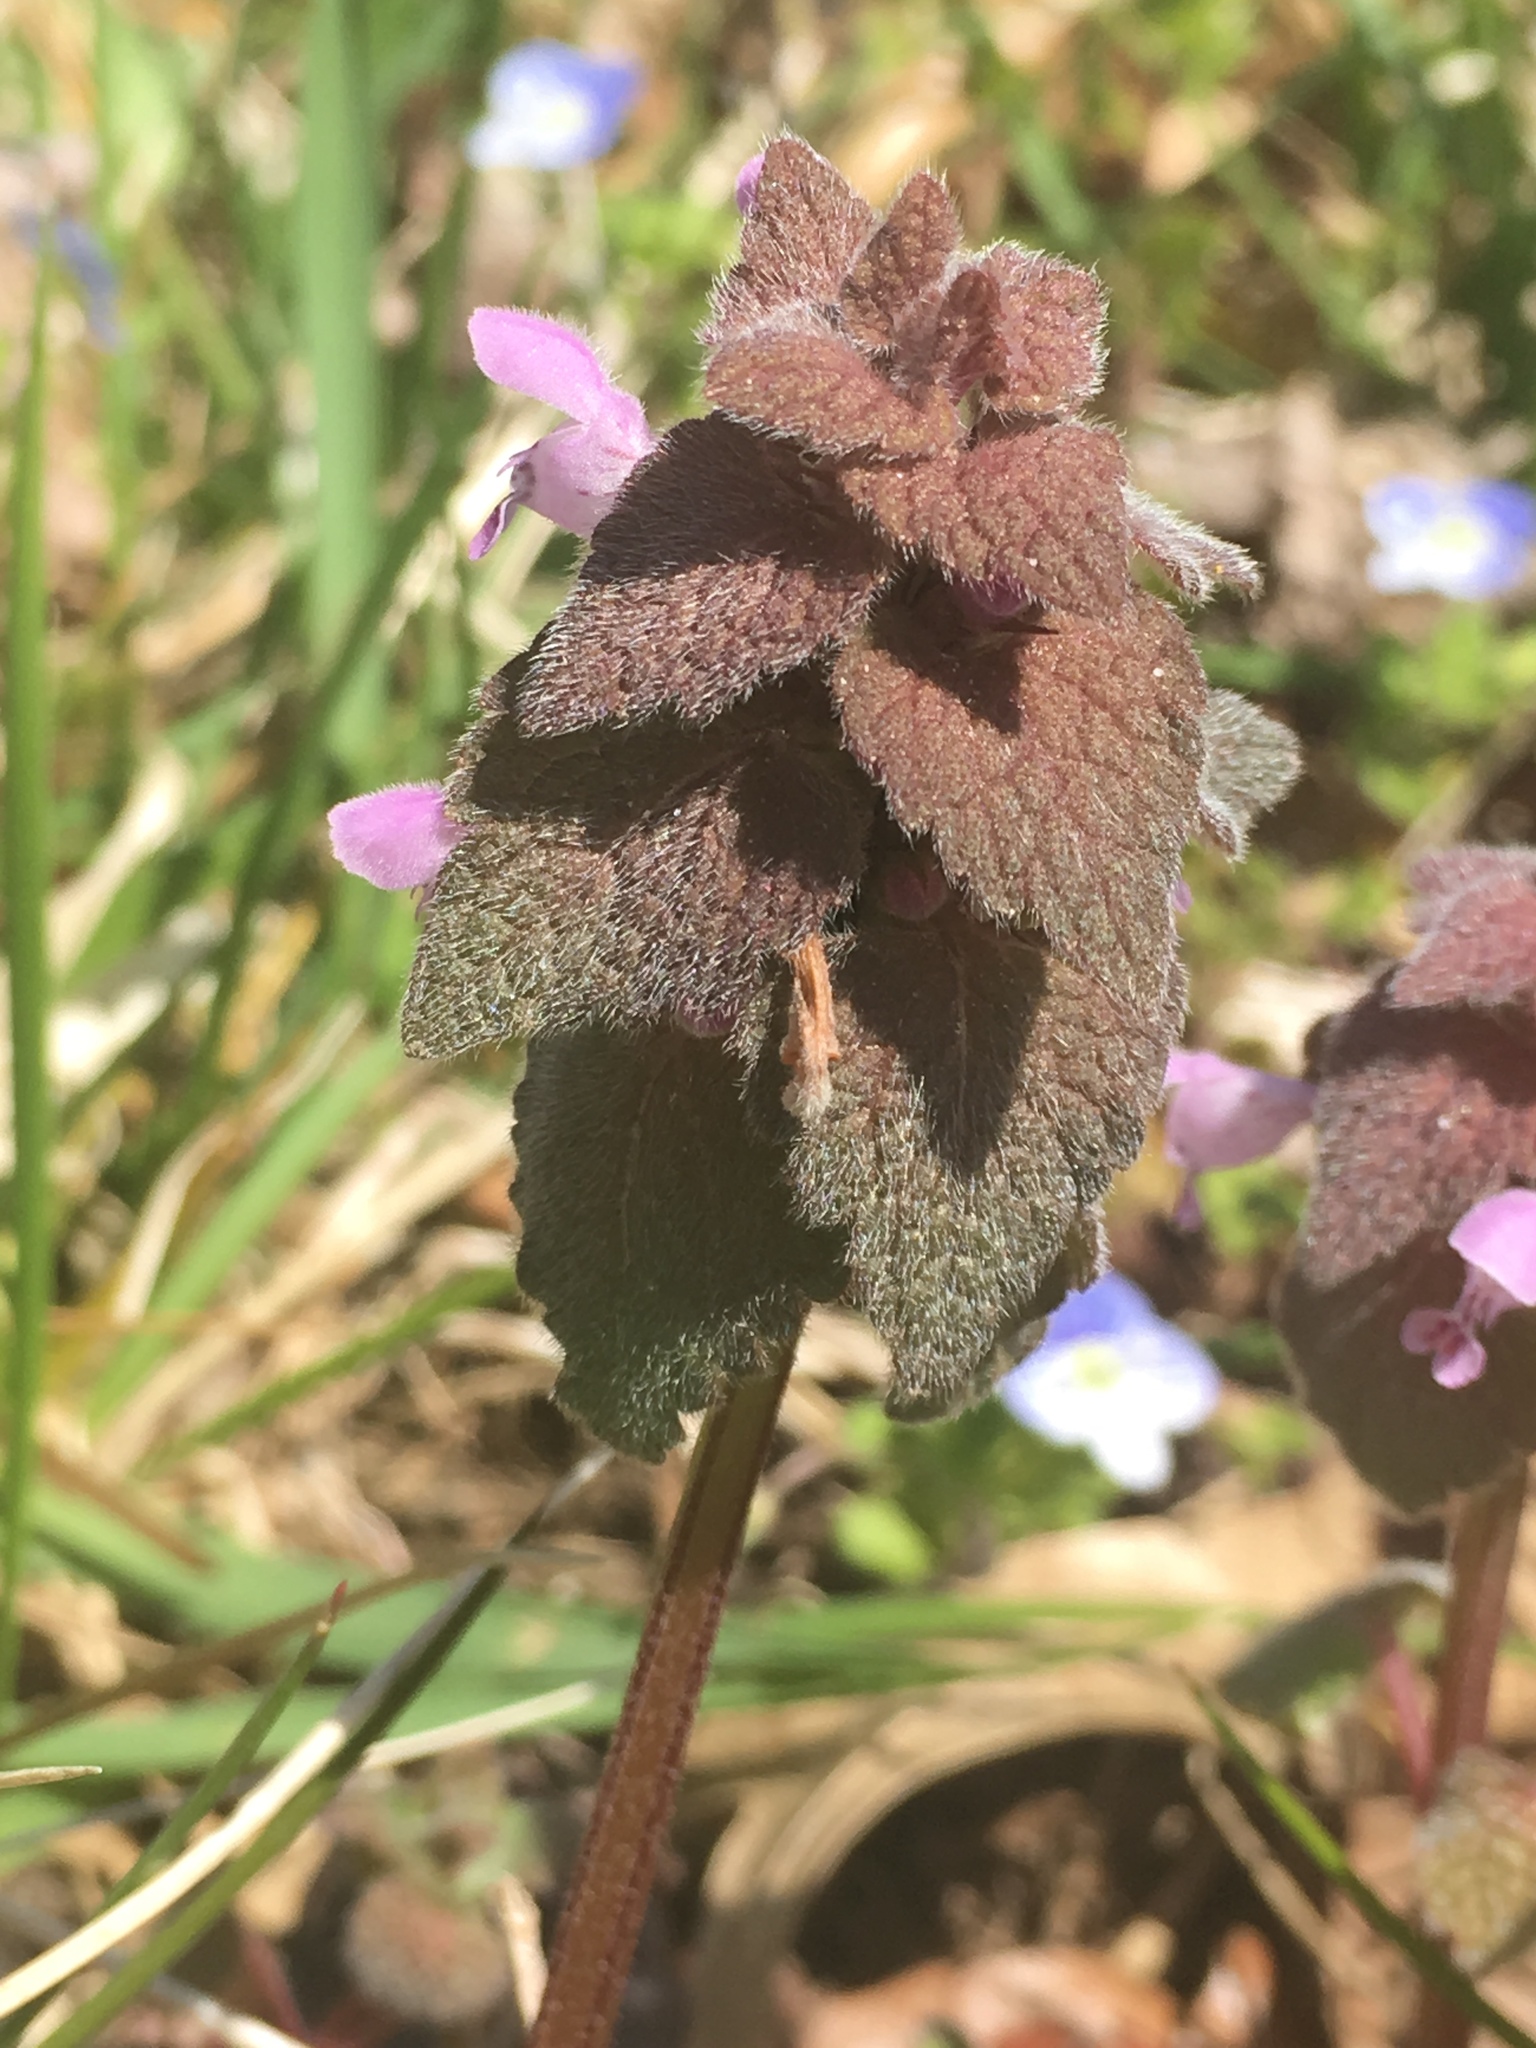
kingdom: Plantae
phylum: Tracheophyta
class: Magnoliopsida
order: Lamiales
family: Lamiaceae
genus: Lamium
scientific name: Lamium purpureum
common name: Red dead-nettle
